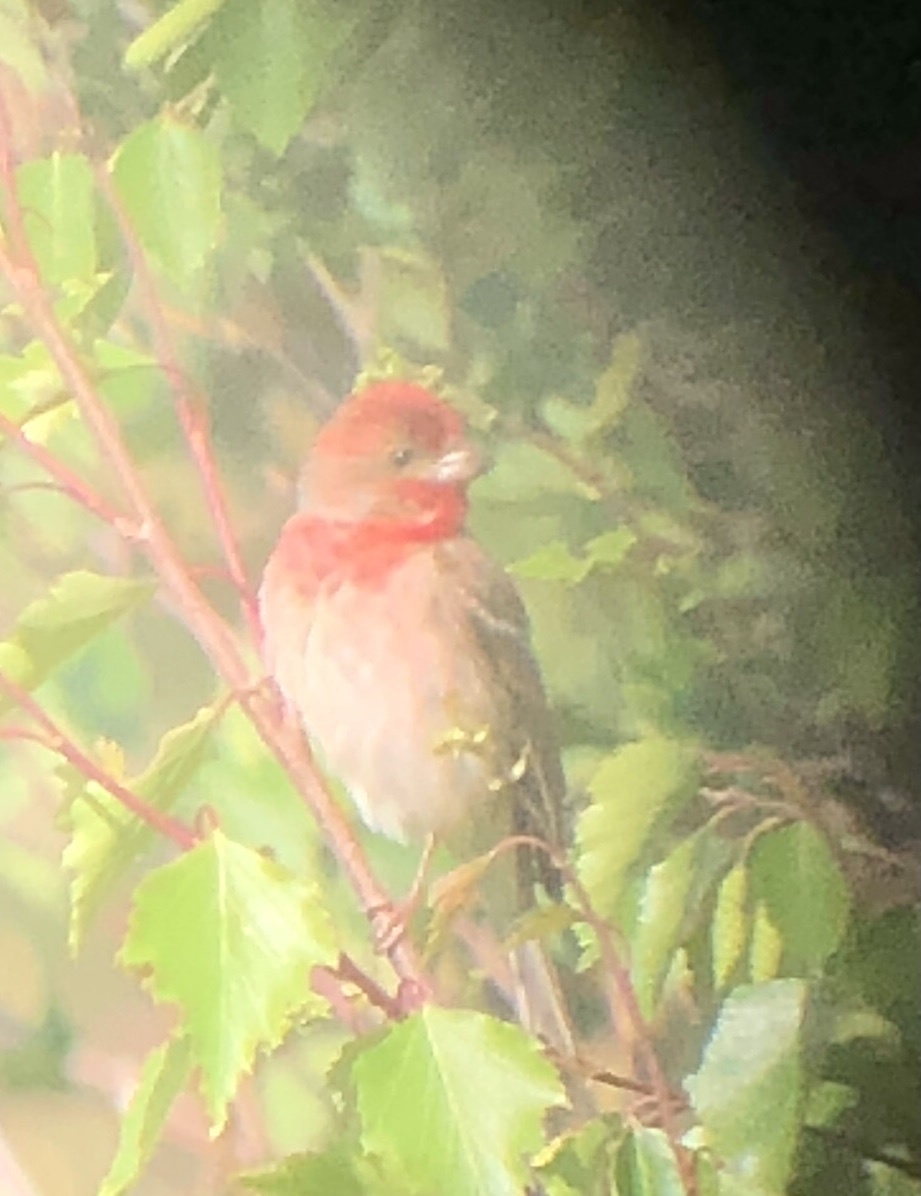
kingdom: Animalia
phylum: Chordata
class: Aves
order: Passeriformes
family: Fringillidae
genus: Carpodacus
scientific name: Carpodacus erythrinus
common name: Common rosefinch
